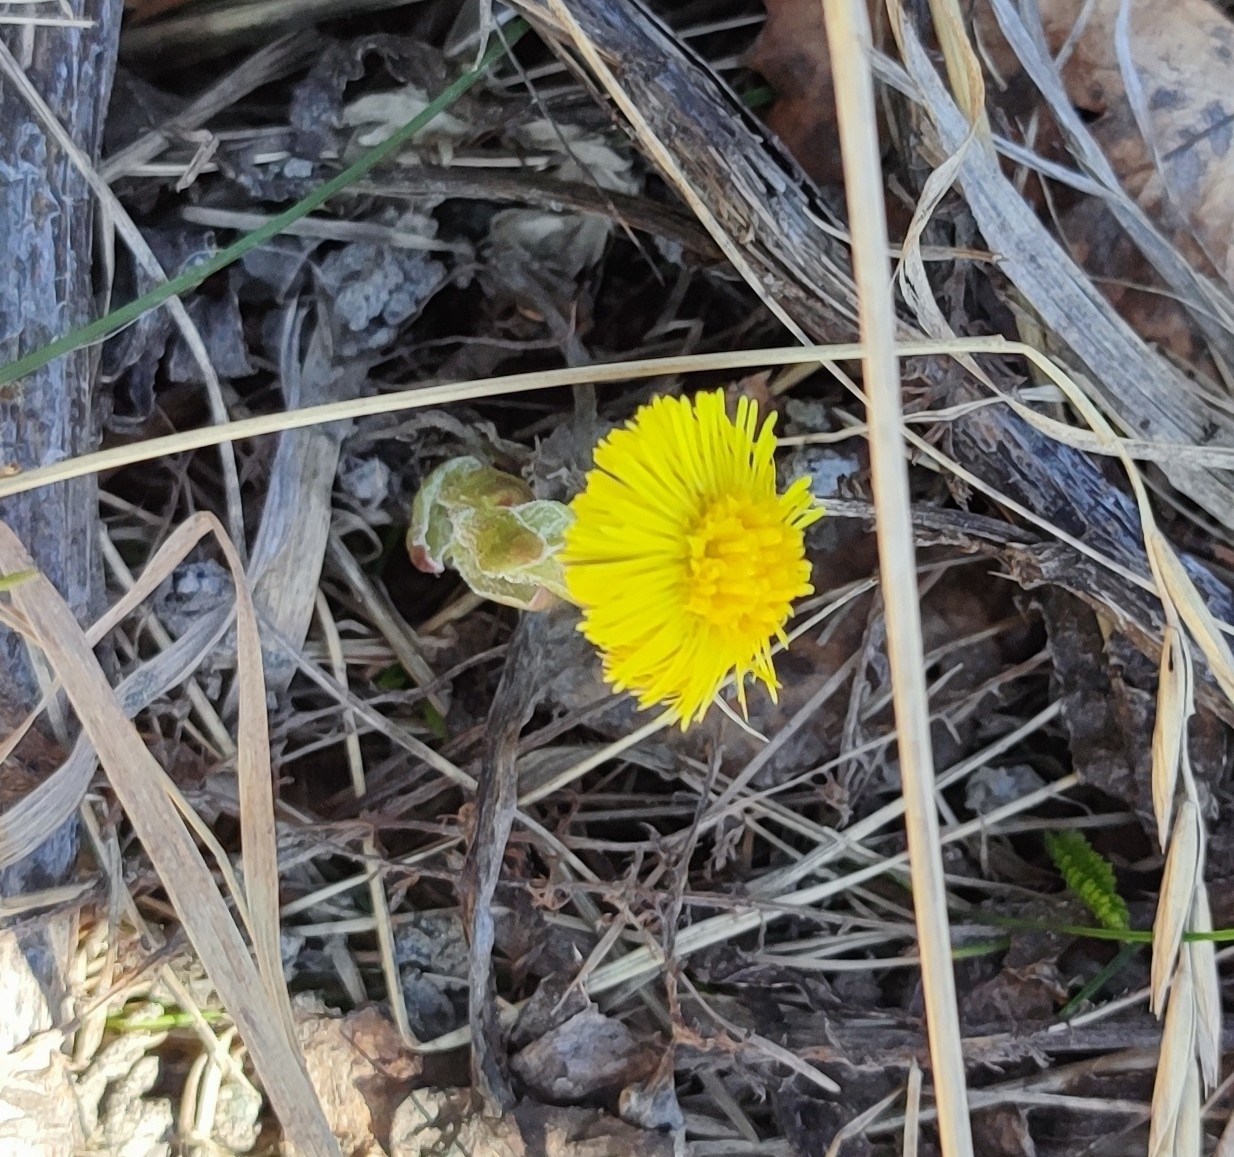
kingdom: Plantae
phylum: Tracheophyta
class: Magnoliopsida
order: Asterales
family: Asteraceae
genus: Tussilago
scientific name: Tussilago farfara
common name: Coltsfoot
